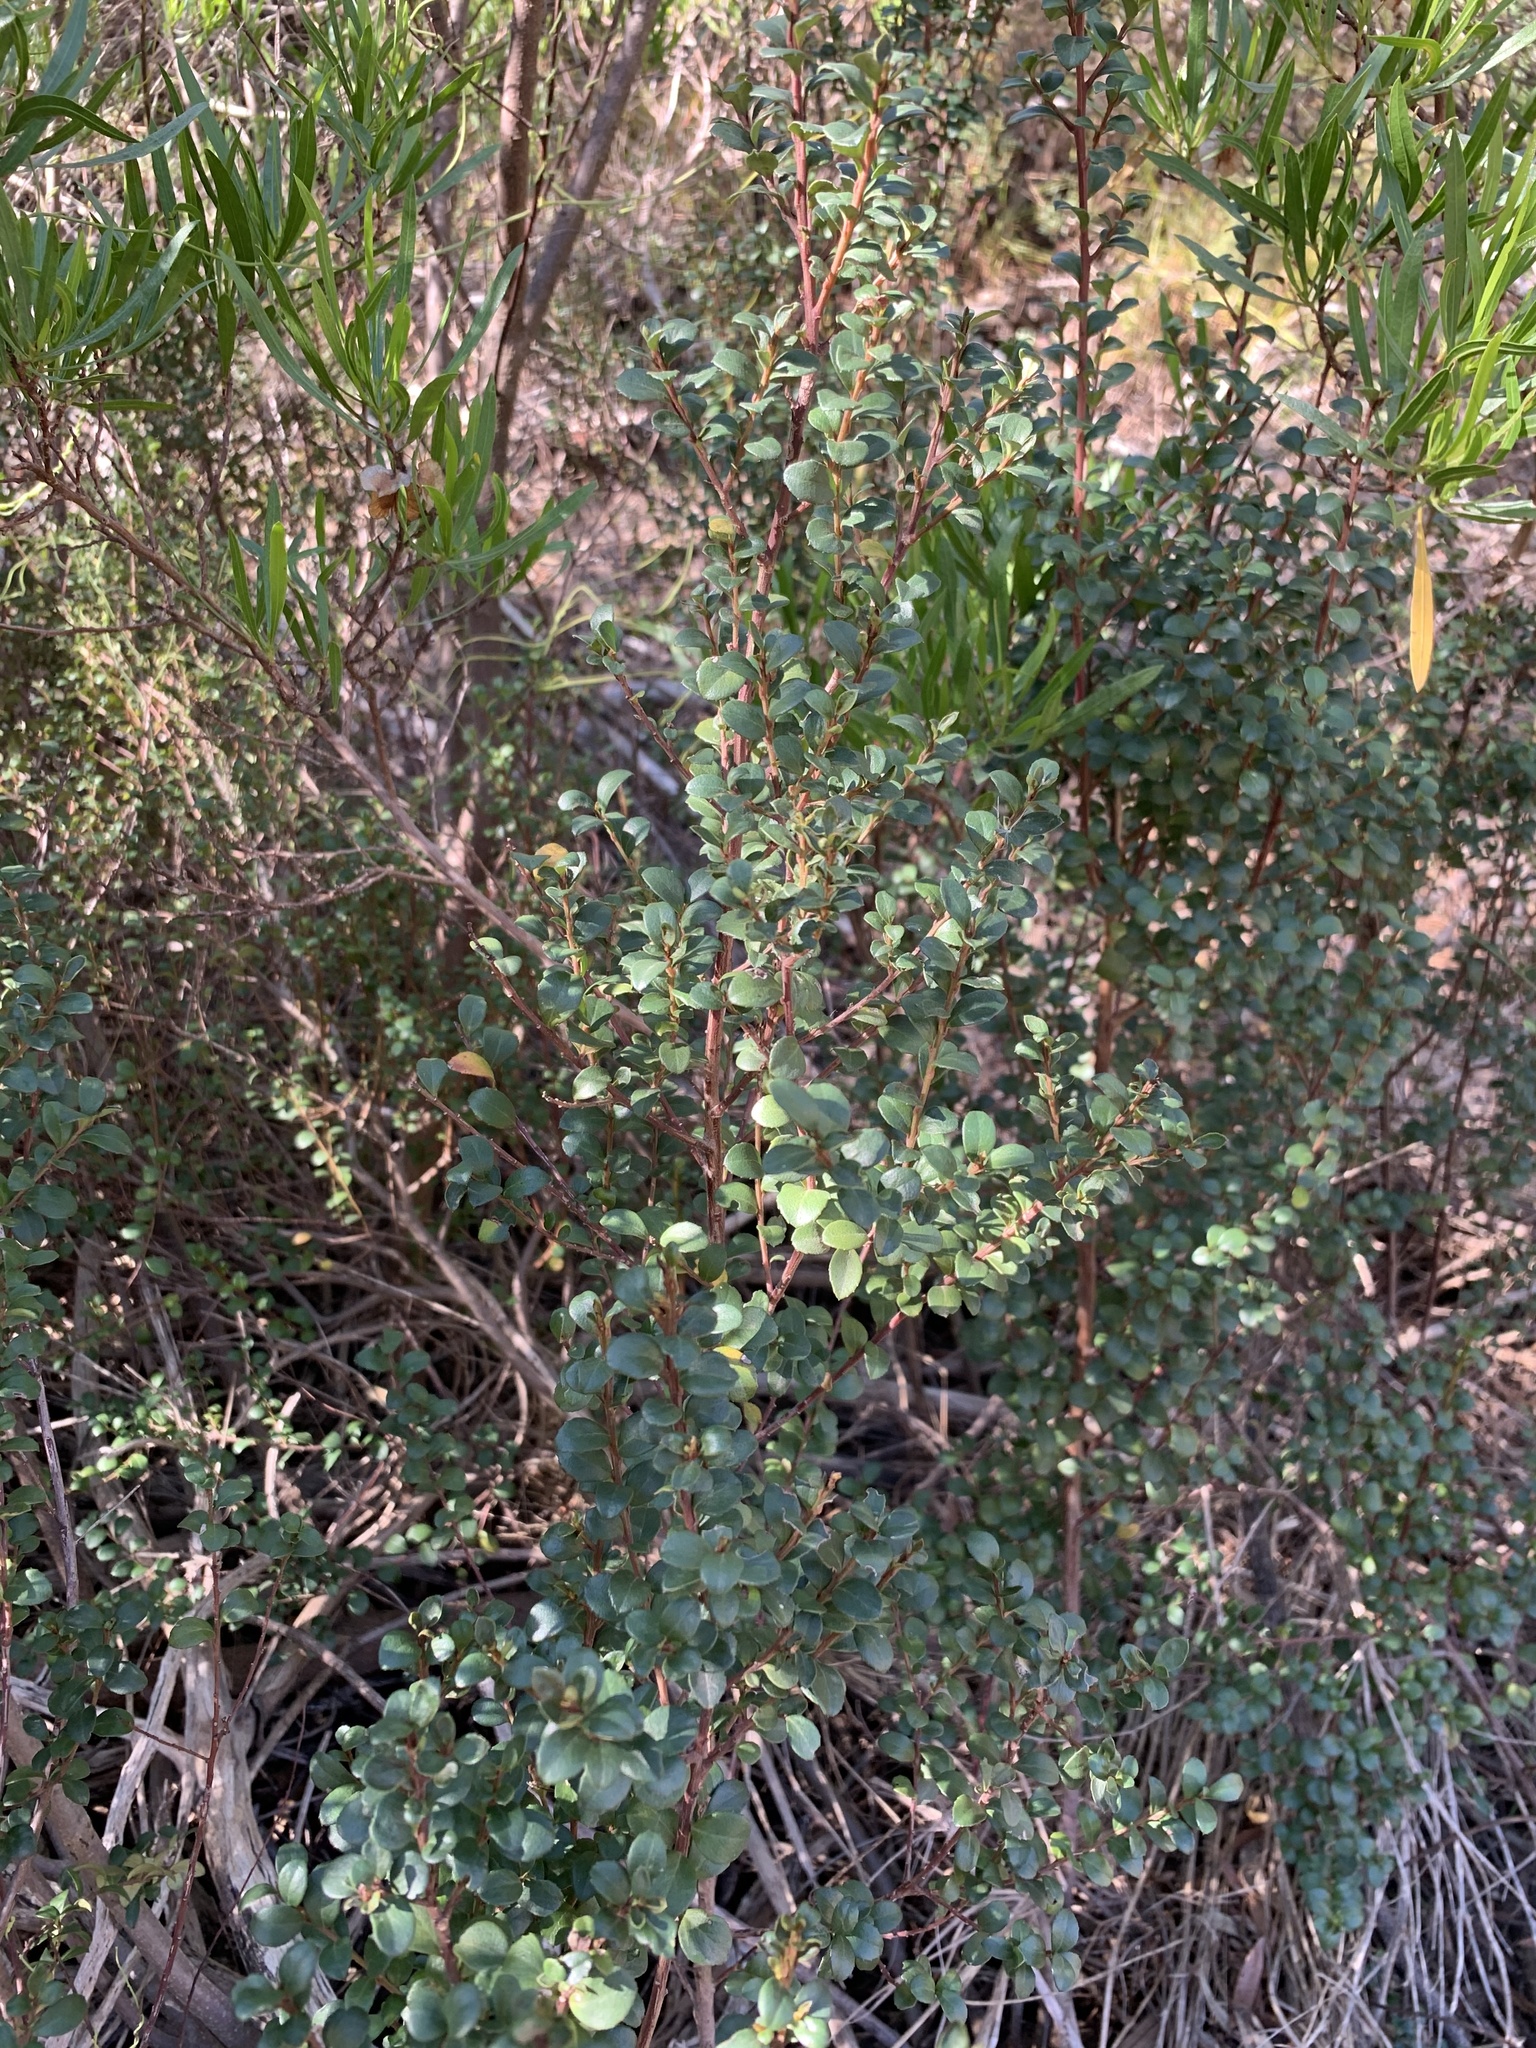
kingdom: Plantae
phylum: Tracheophyta
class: Magnoliopsida
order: Ericales
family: Primulaceae
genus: Myrsine
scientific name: Myrsine africana
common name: African-boxwood
